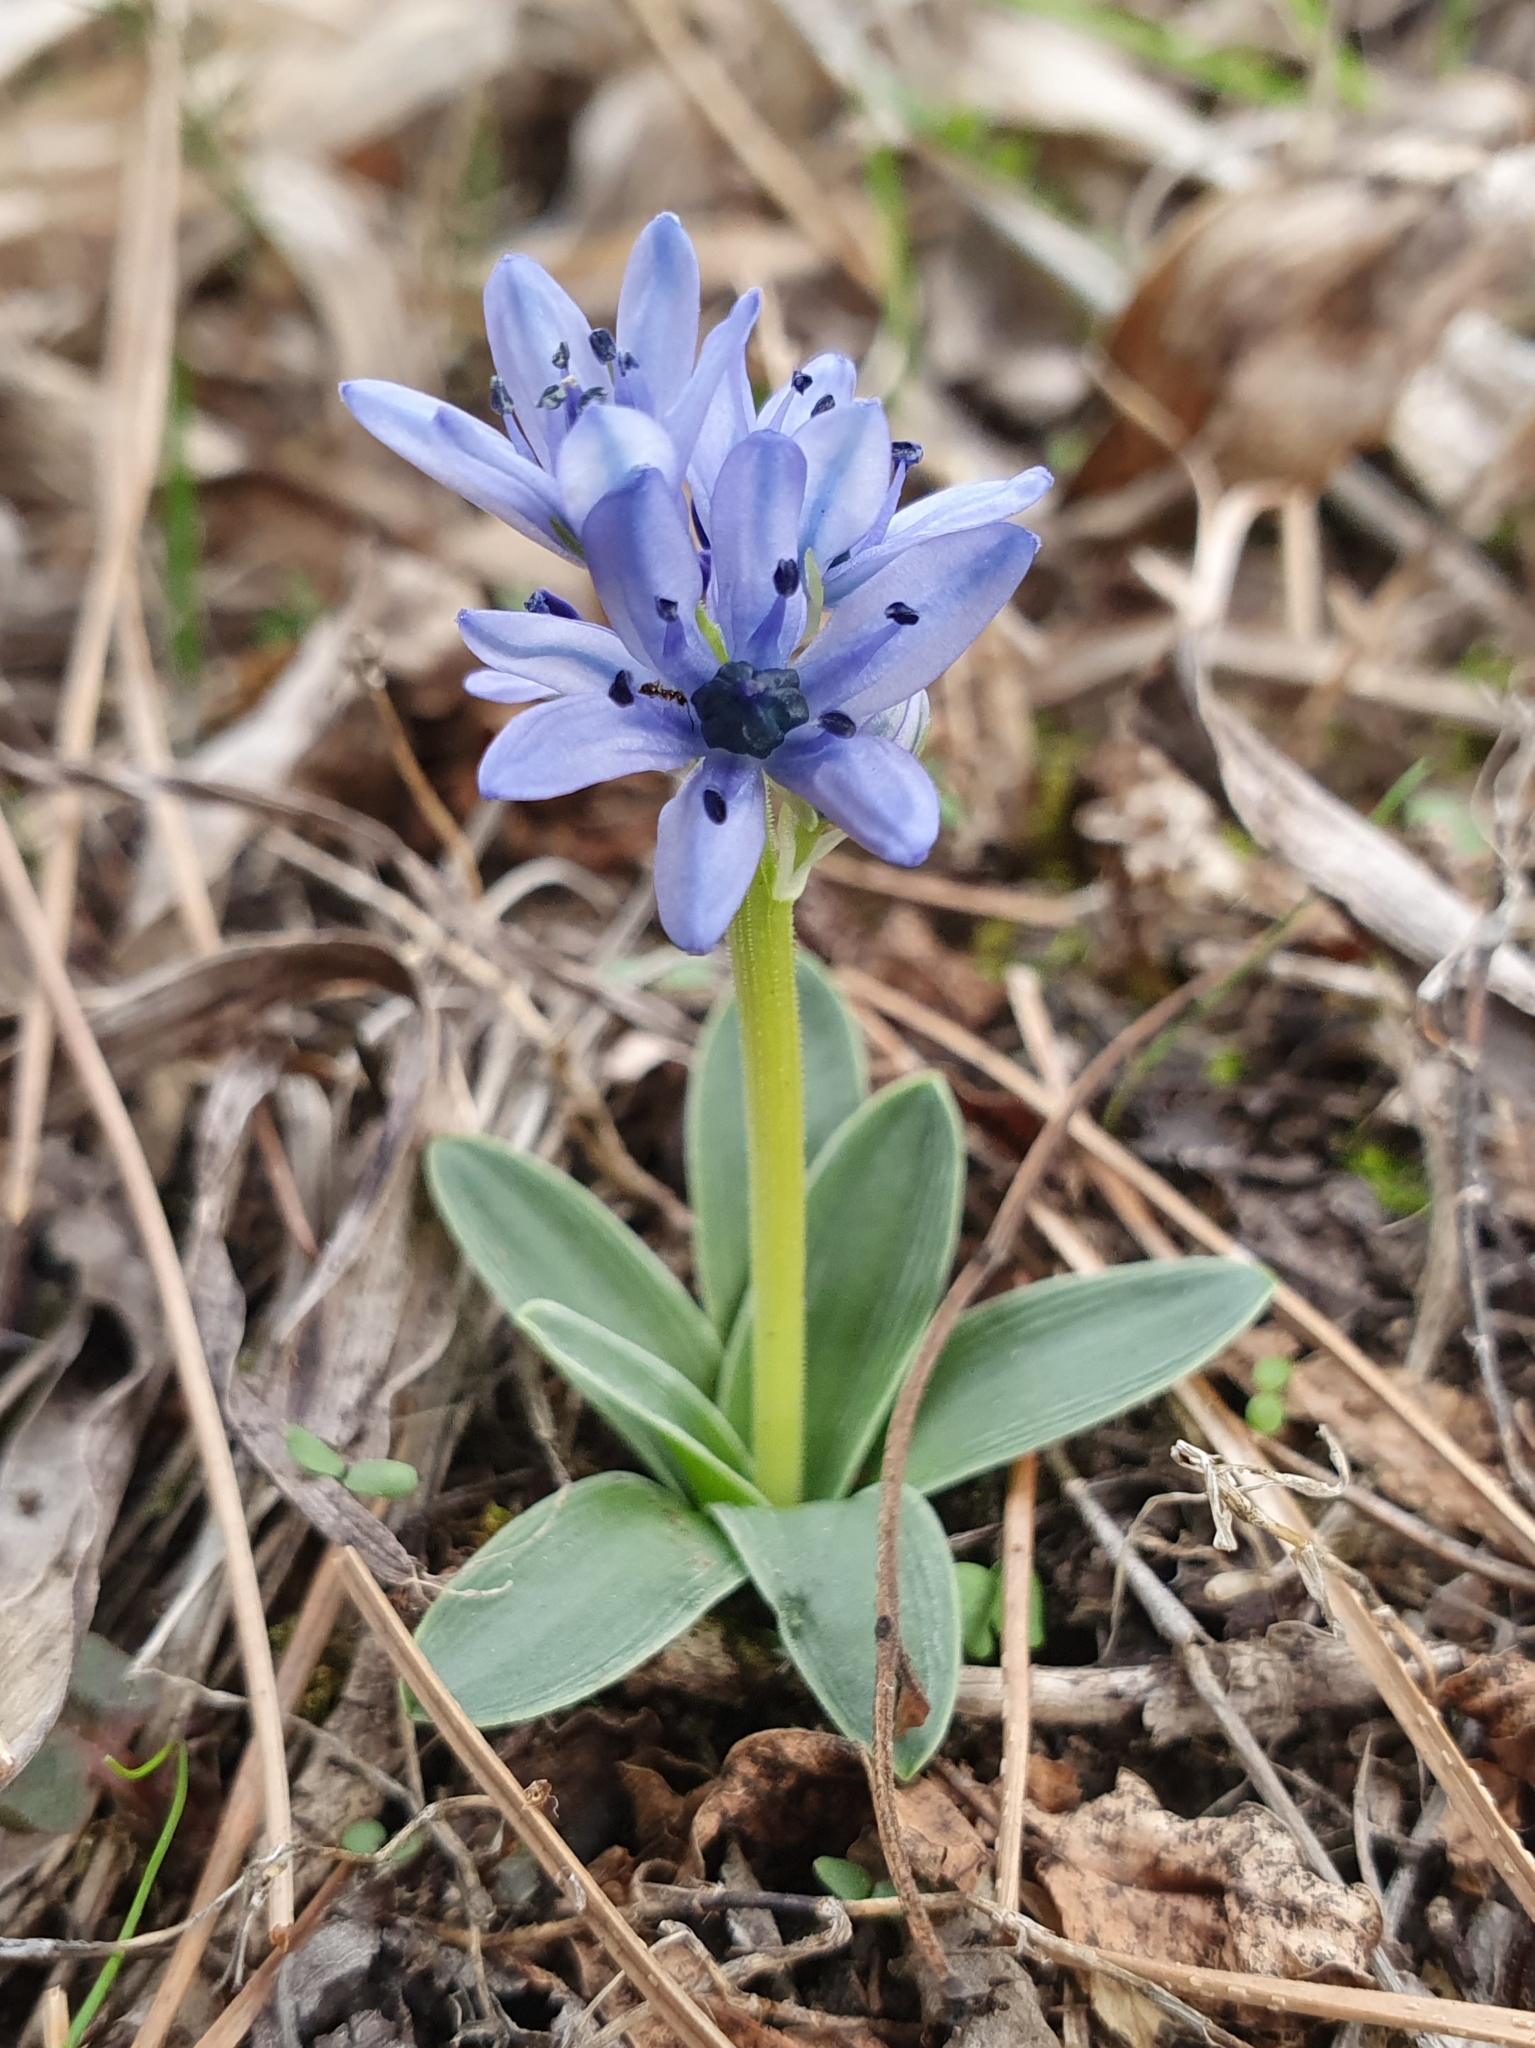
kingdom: Plantae
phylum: Tracheophyta
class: Liliopsida
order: Asparagales
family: Asparagaceae
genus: Hyacinthoides
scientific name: Hyacinthoides lingulata
